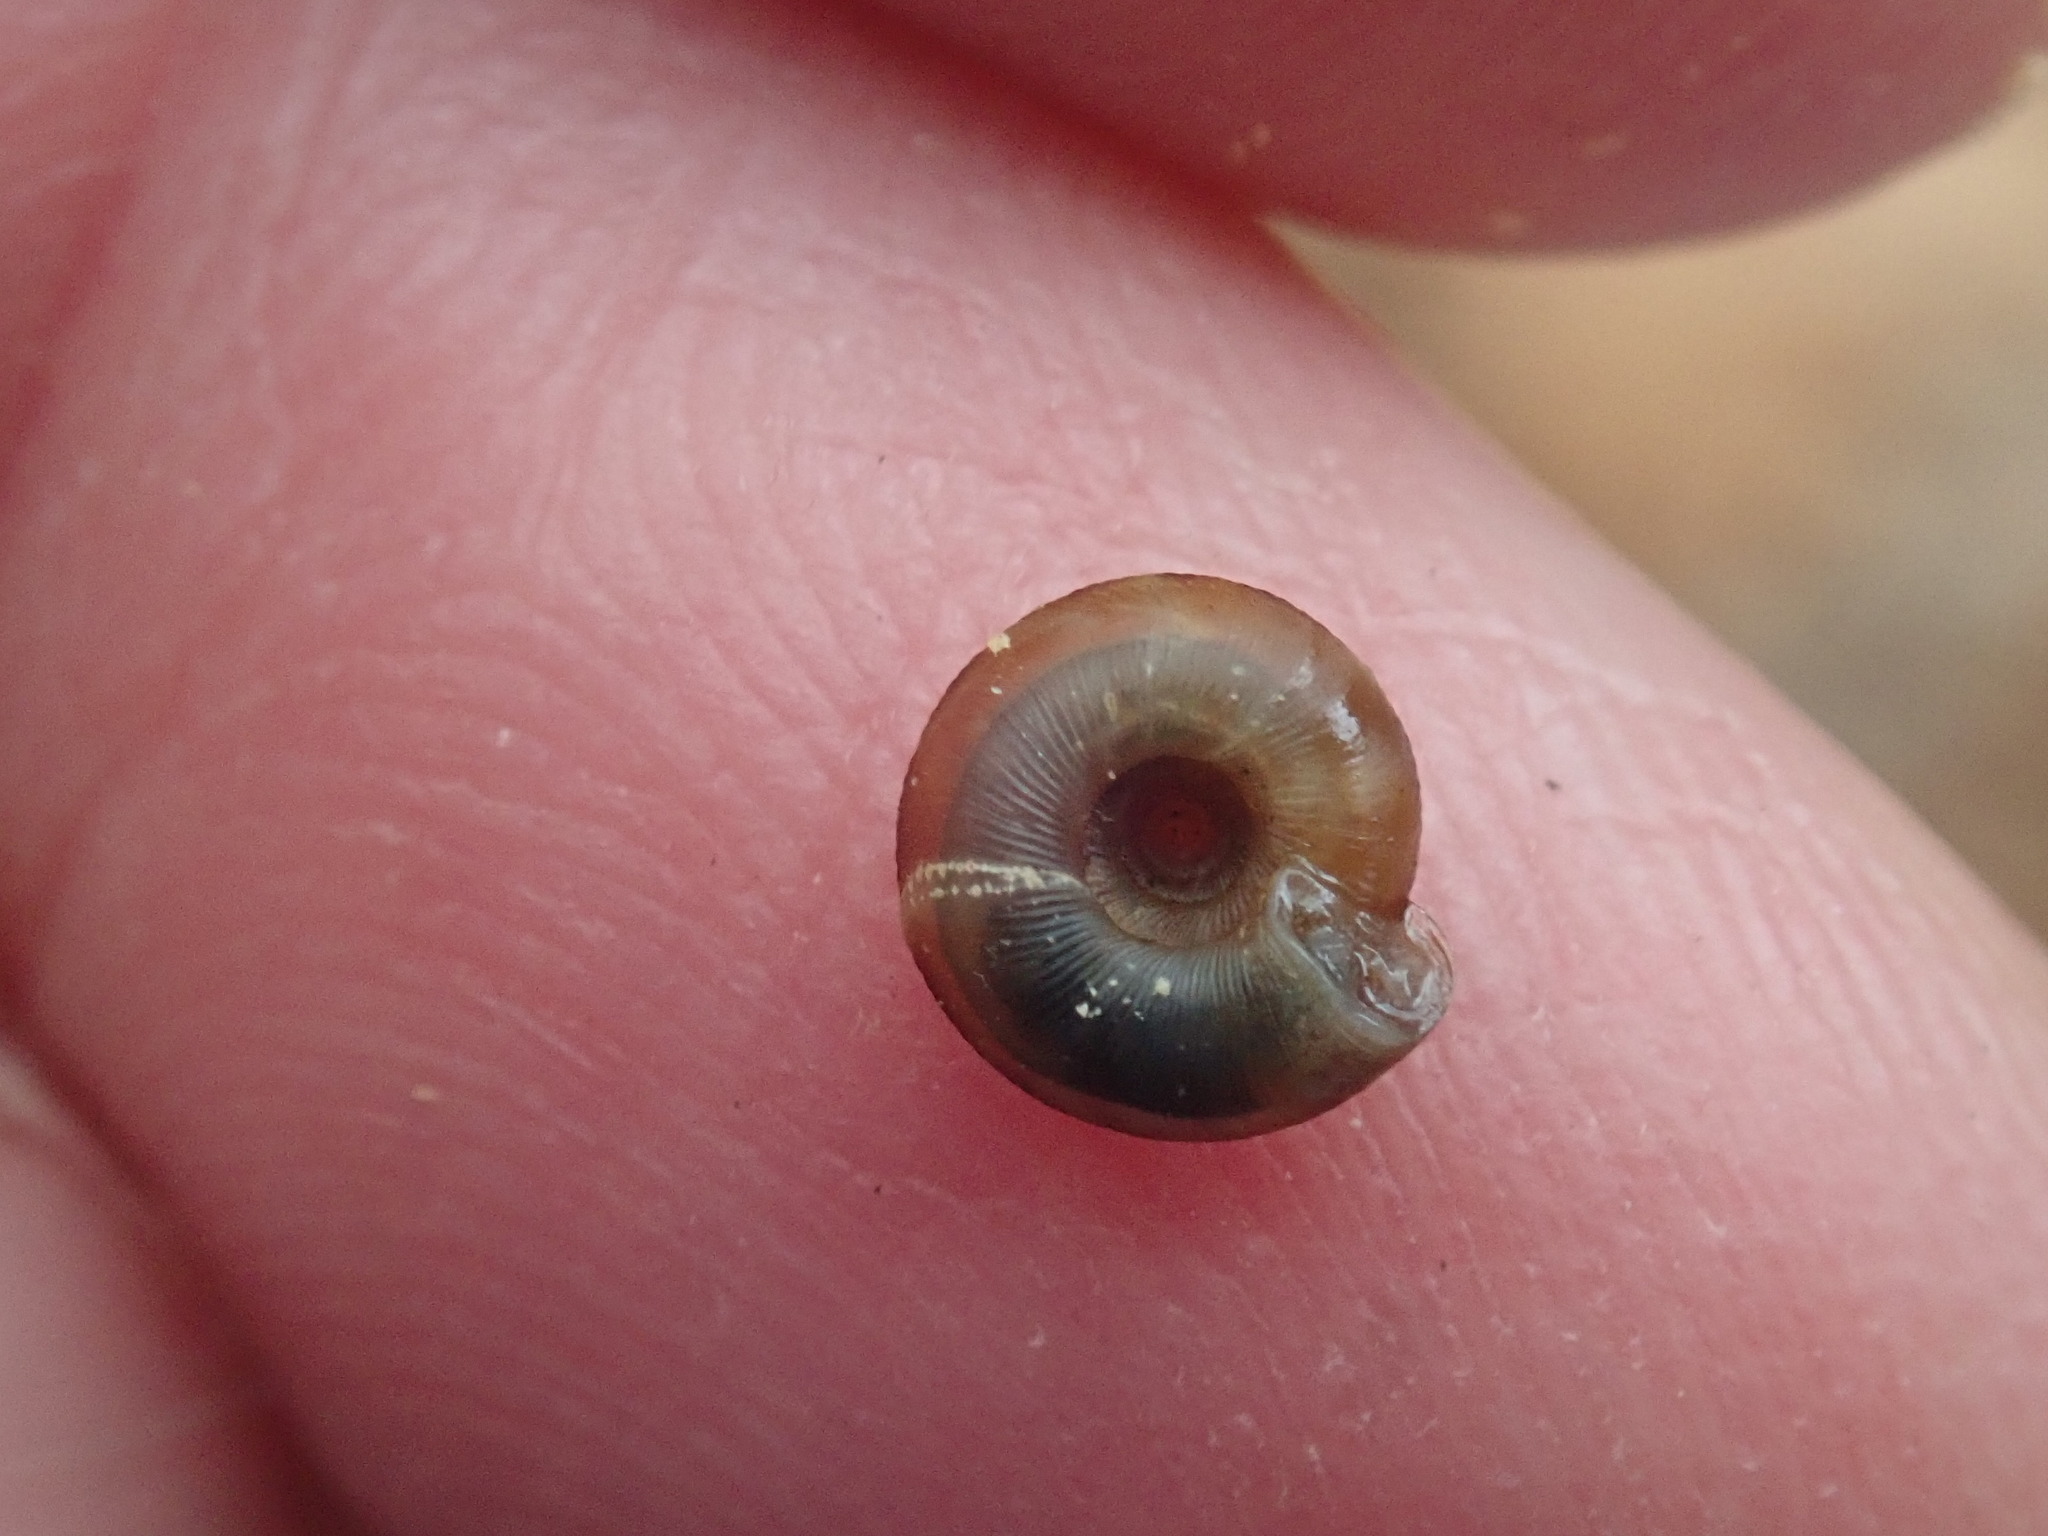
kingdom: Animalia
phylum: Mollusca
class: Gastropoda
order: Stylommatophora
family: Discidae
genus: Discus
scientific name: Discus rotundatus
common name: Rounded snail
